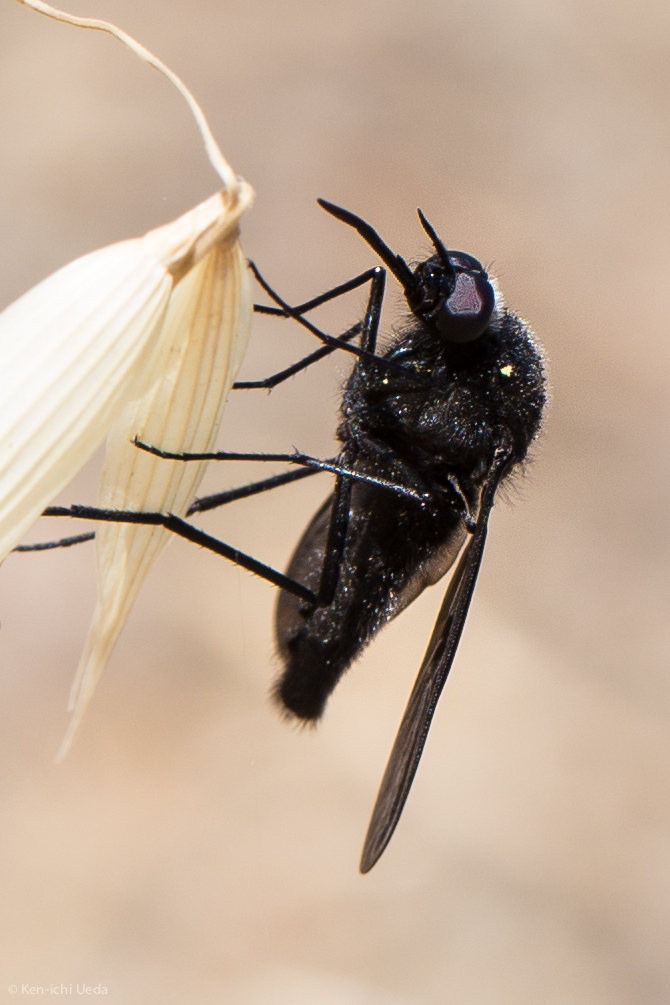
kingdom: Animalia
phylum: Arthropoda
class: Insecta
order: Diptera
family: Bombyliidae
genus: Thevenetimyia
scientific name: Thevenetimyia notata
